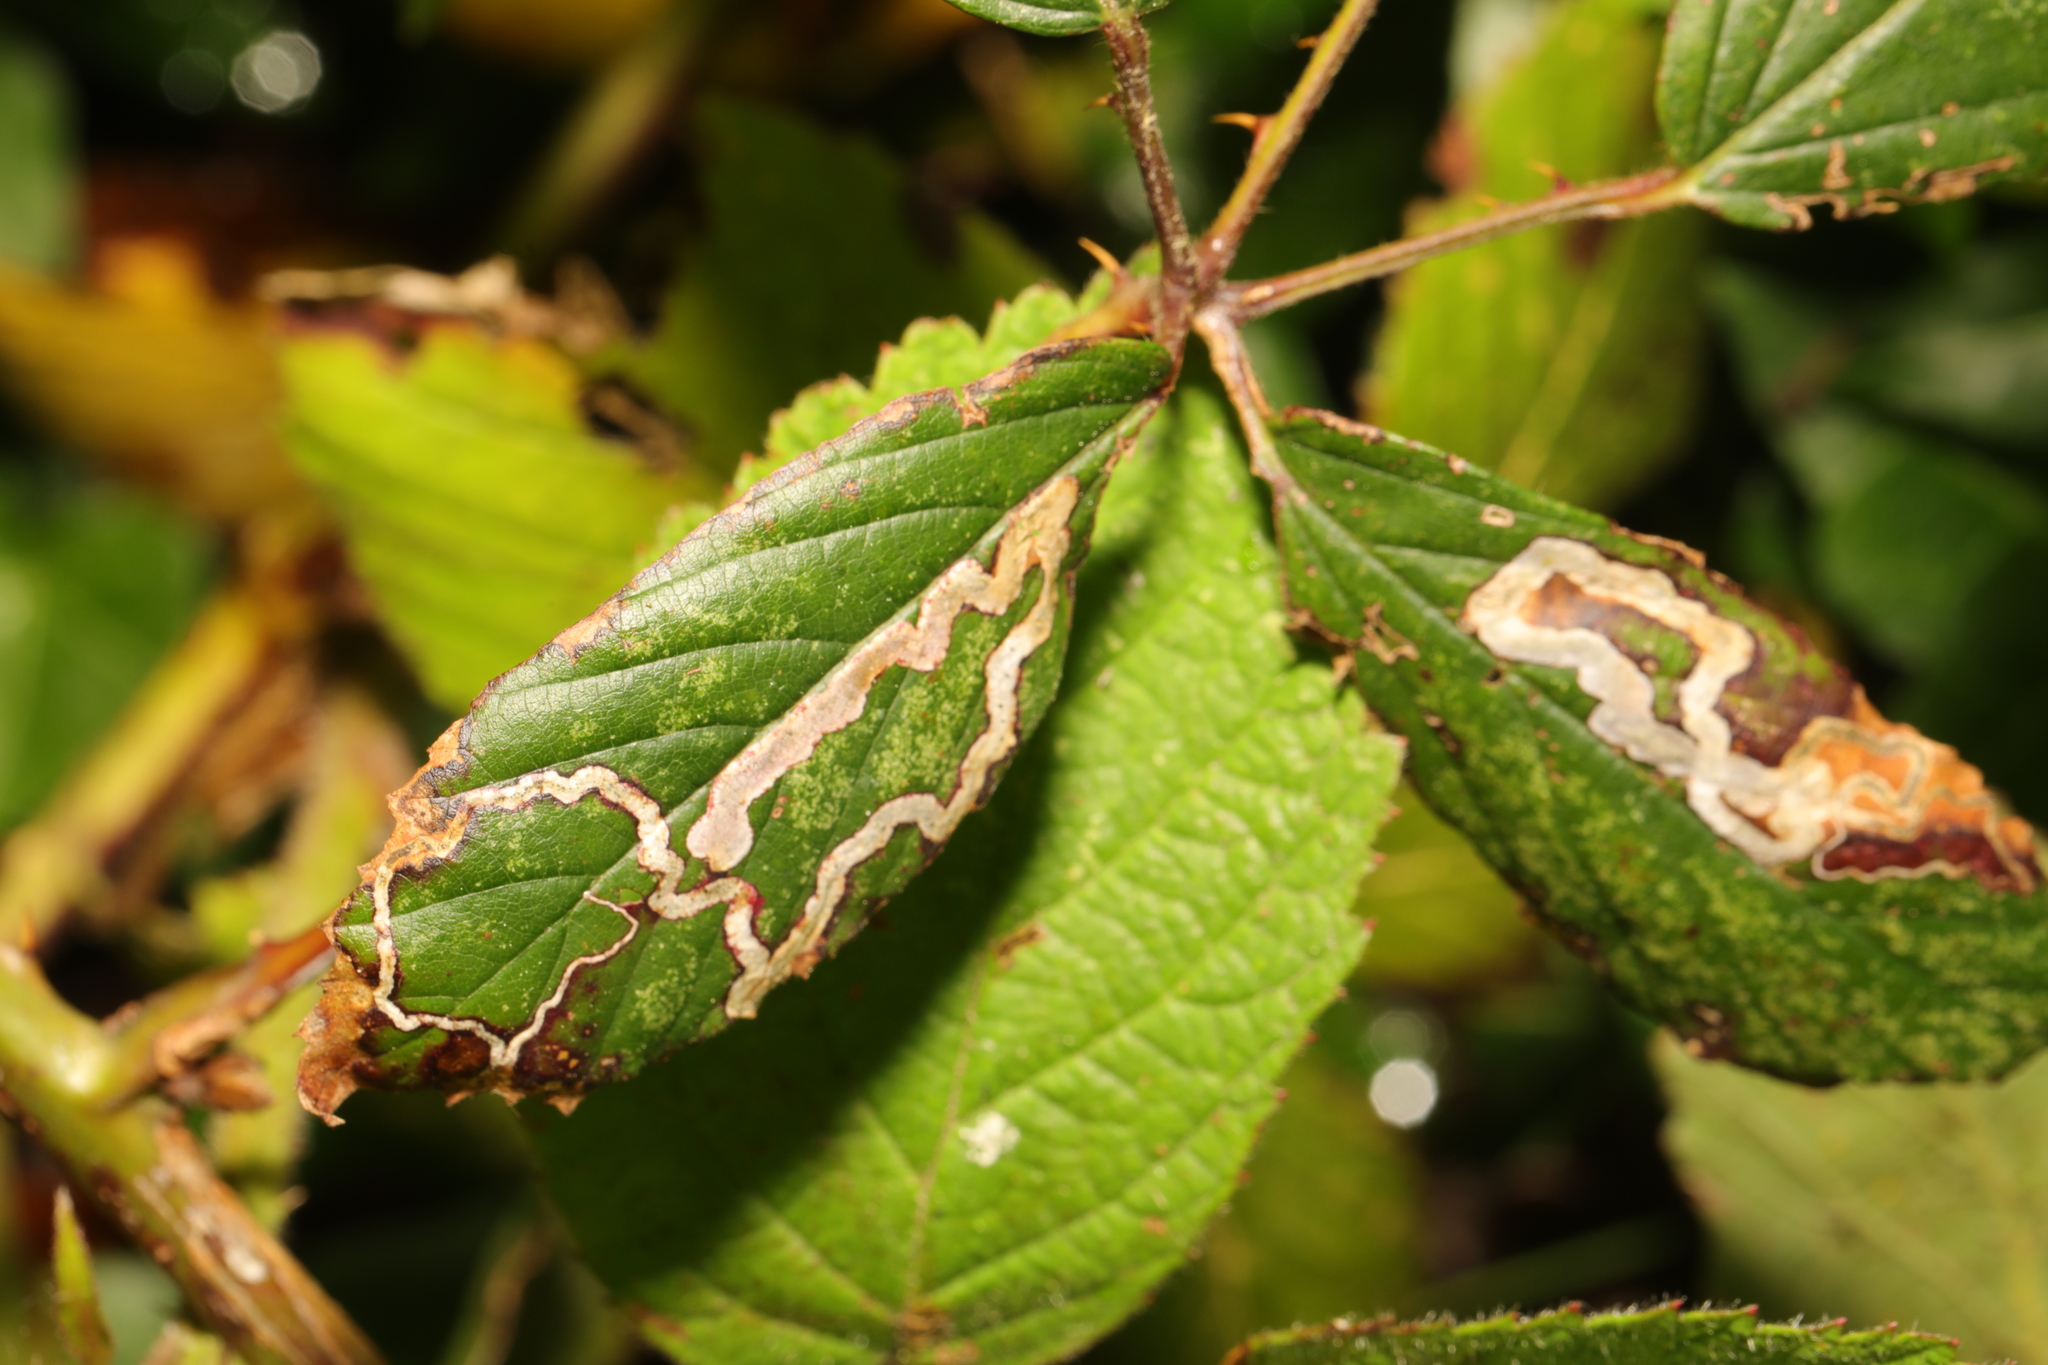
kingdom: Animalia
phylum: Arthropoda
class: Insecta
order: Lepidoptera
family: Nepticulidae
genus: Stigmella
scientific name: Stigmella aurella
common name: Golden pigmy
